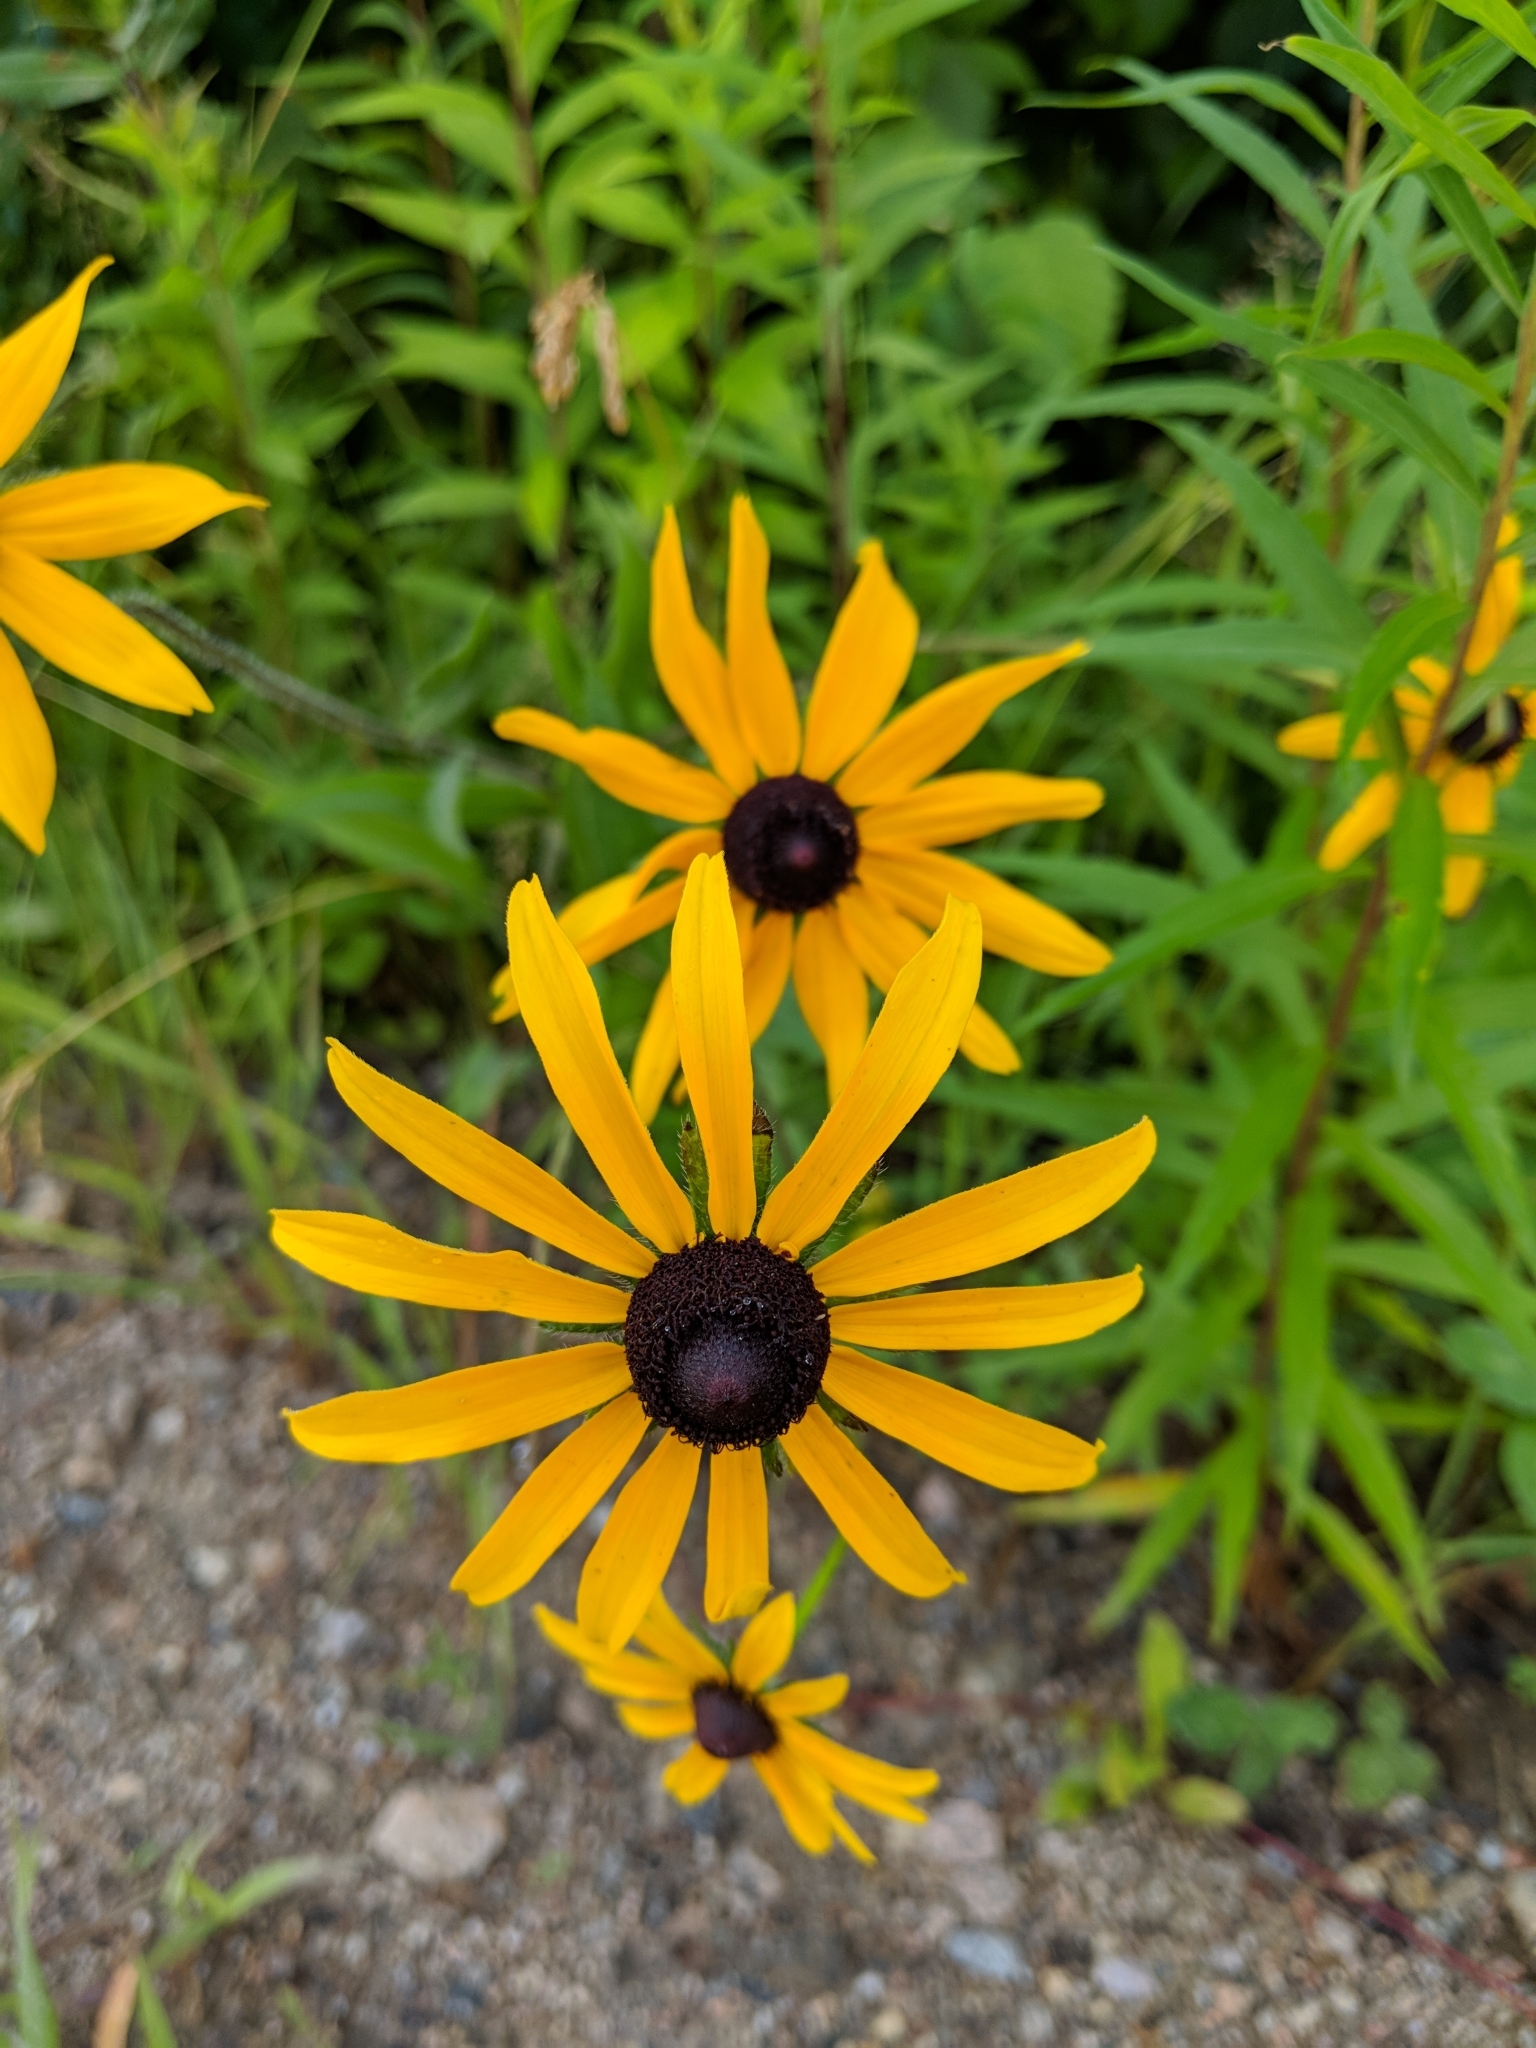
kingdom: Plantae
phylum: Tracheophyta
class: Magnoliopsida
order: Asterales
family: Asteraceae
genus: Rudbeckia
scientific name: Rudbeckia hirta
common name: Black-eyed-susan
